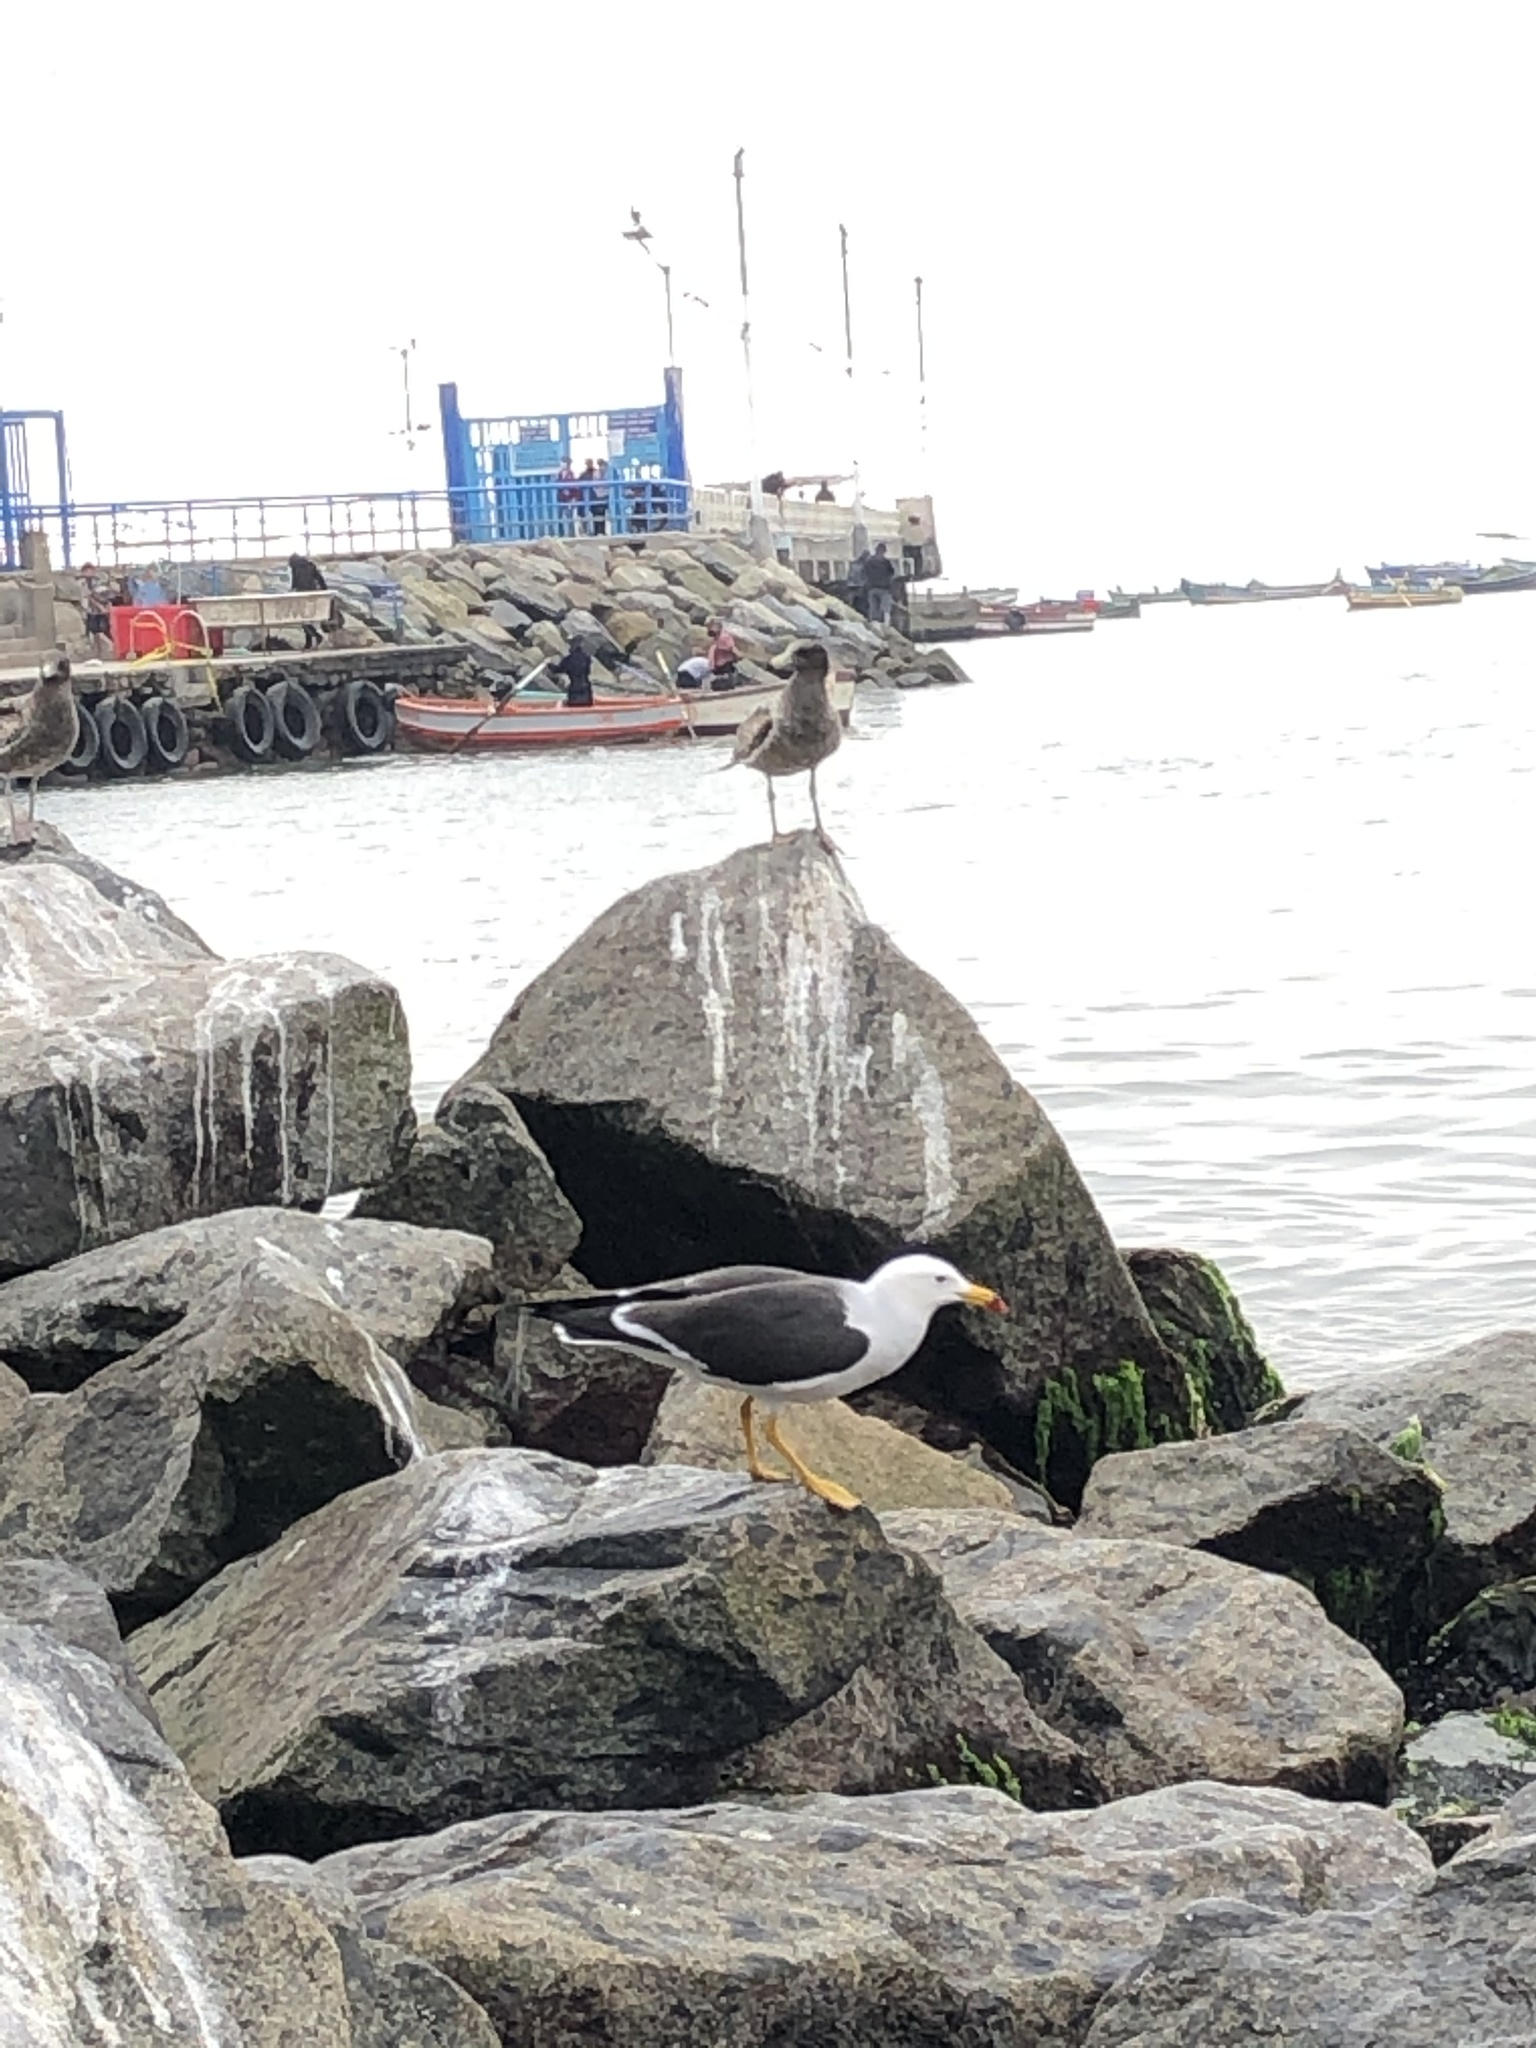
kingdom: Animalia
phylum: Chordata
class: Aves
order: Charadriiformes
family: Laridae
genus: Larus
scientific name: Larus belcheri
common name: Belcher's gull
